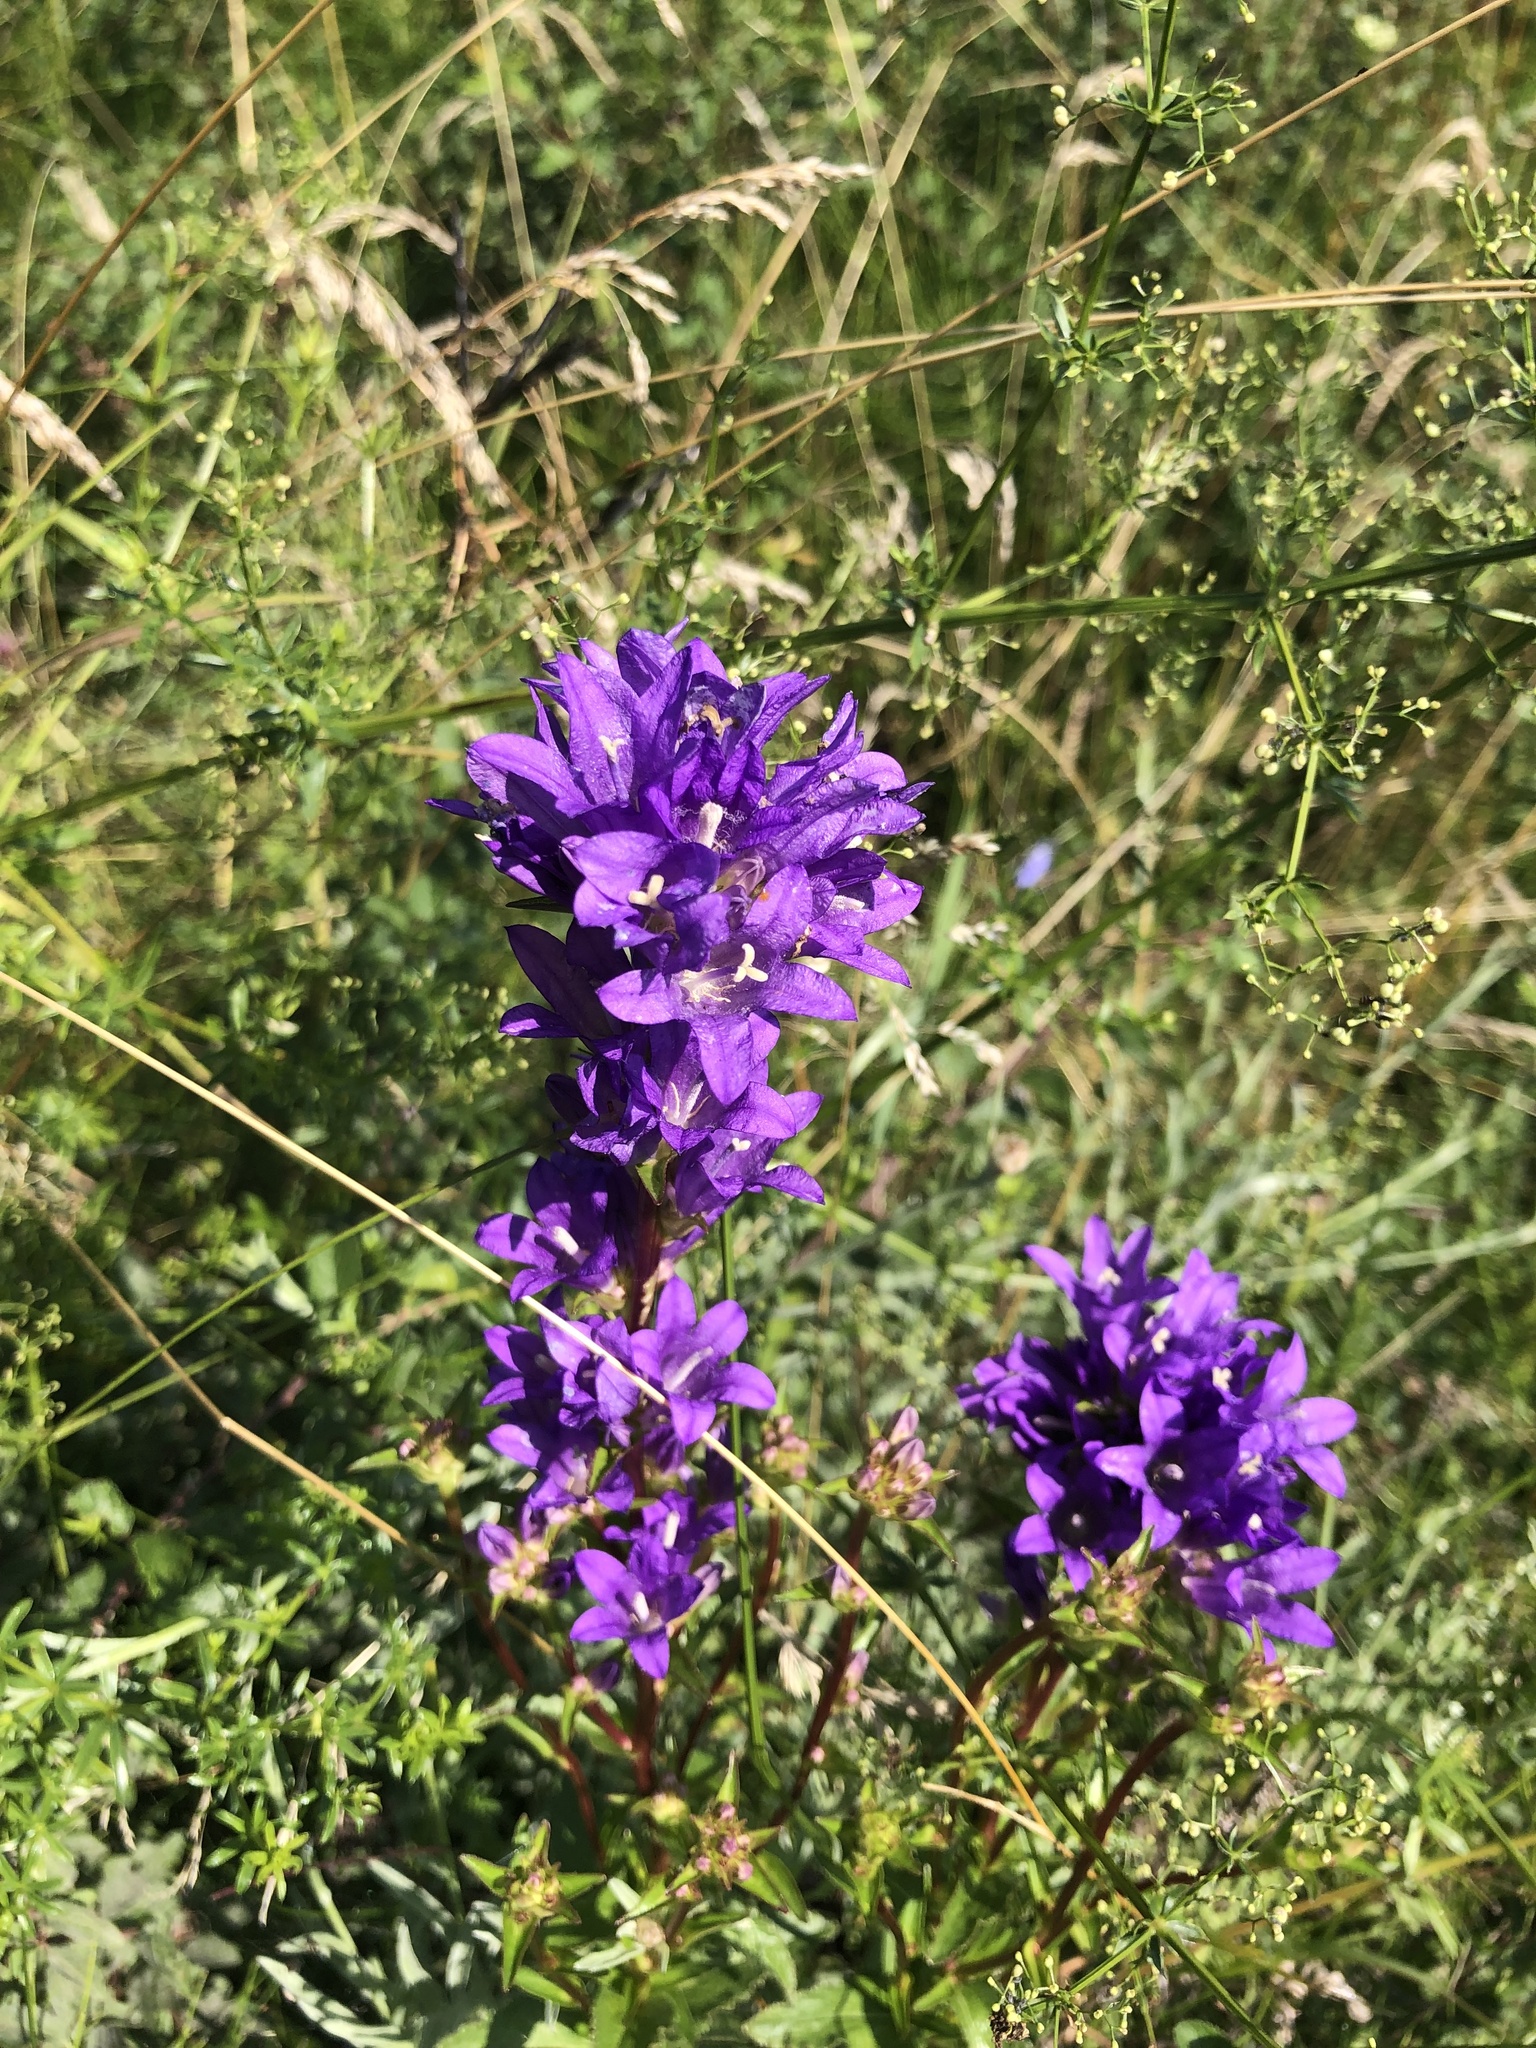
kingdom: Plantae
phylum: Tracheophyta
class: Magnoliopsida
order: Asterales
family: Campanulaceae
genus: Campanula
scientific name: Campanula glomerata
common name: Clustered bellflower
